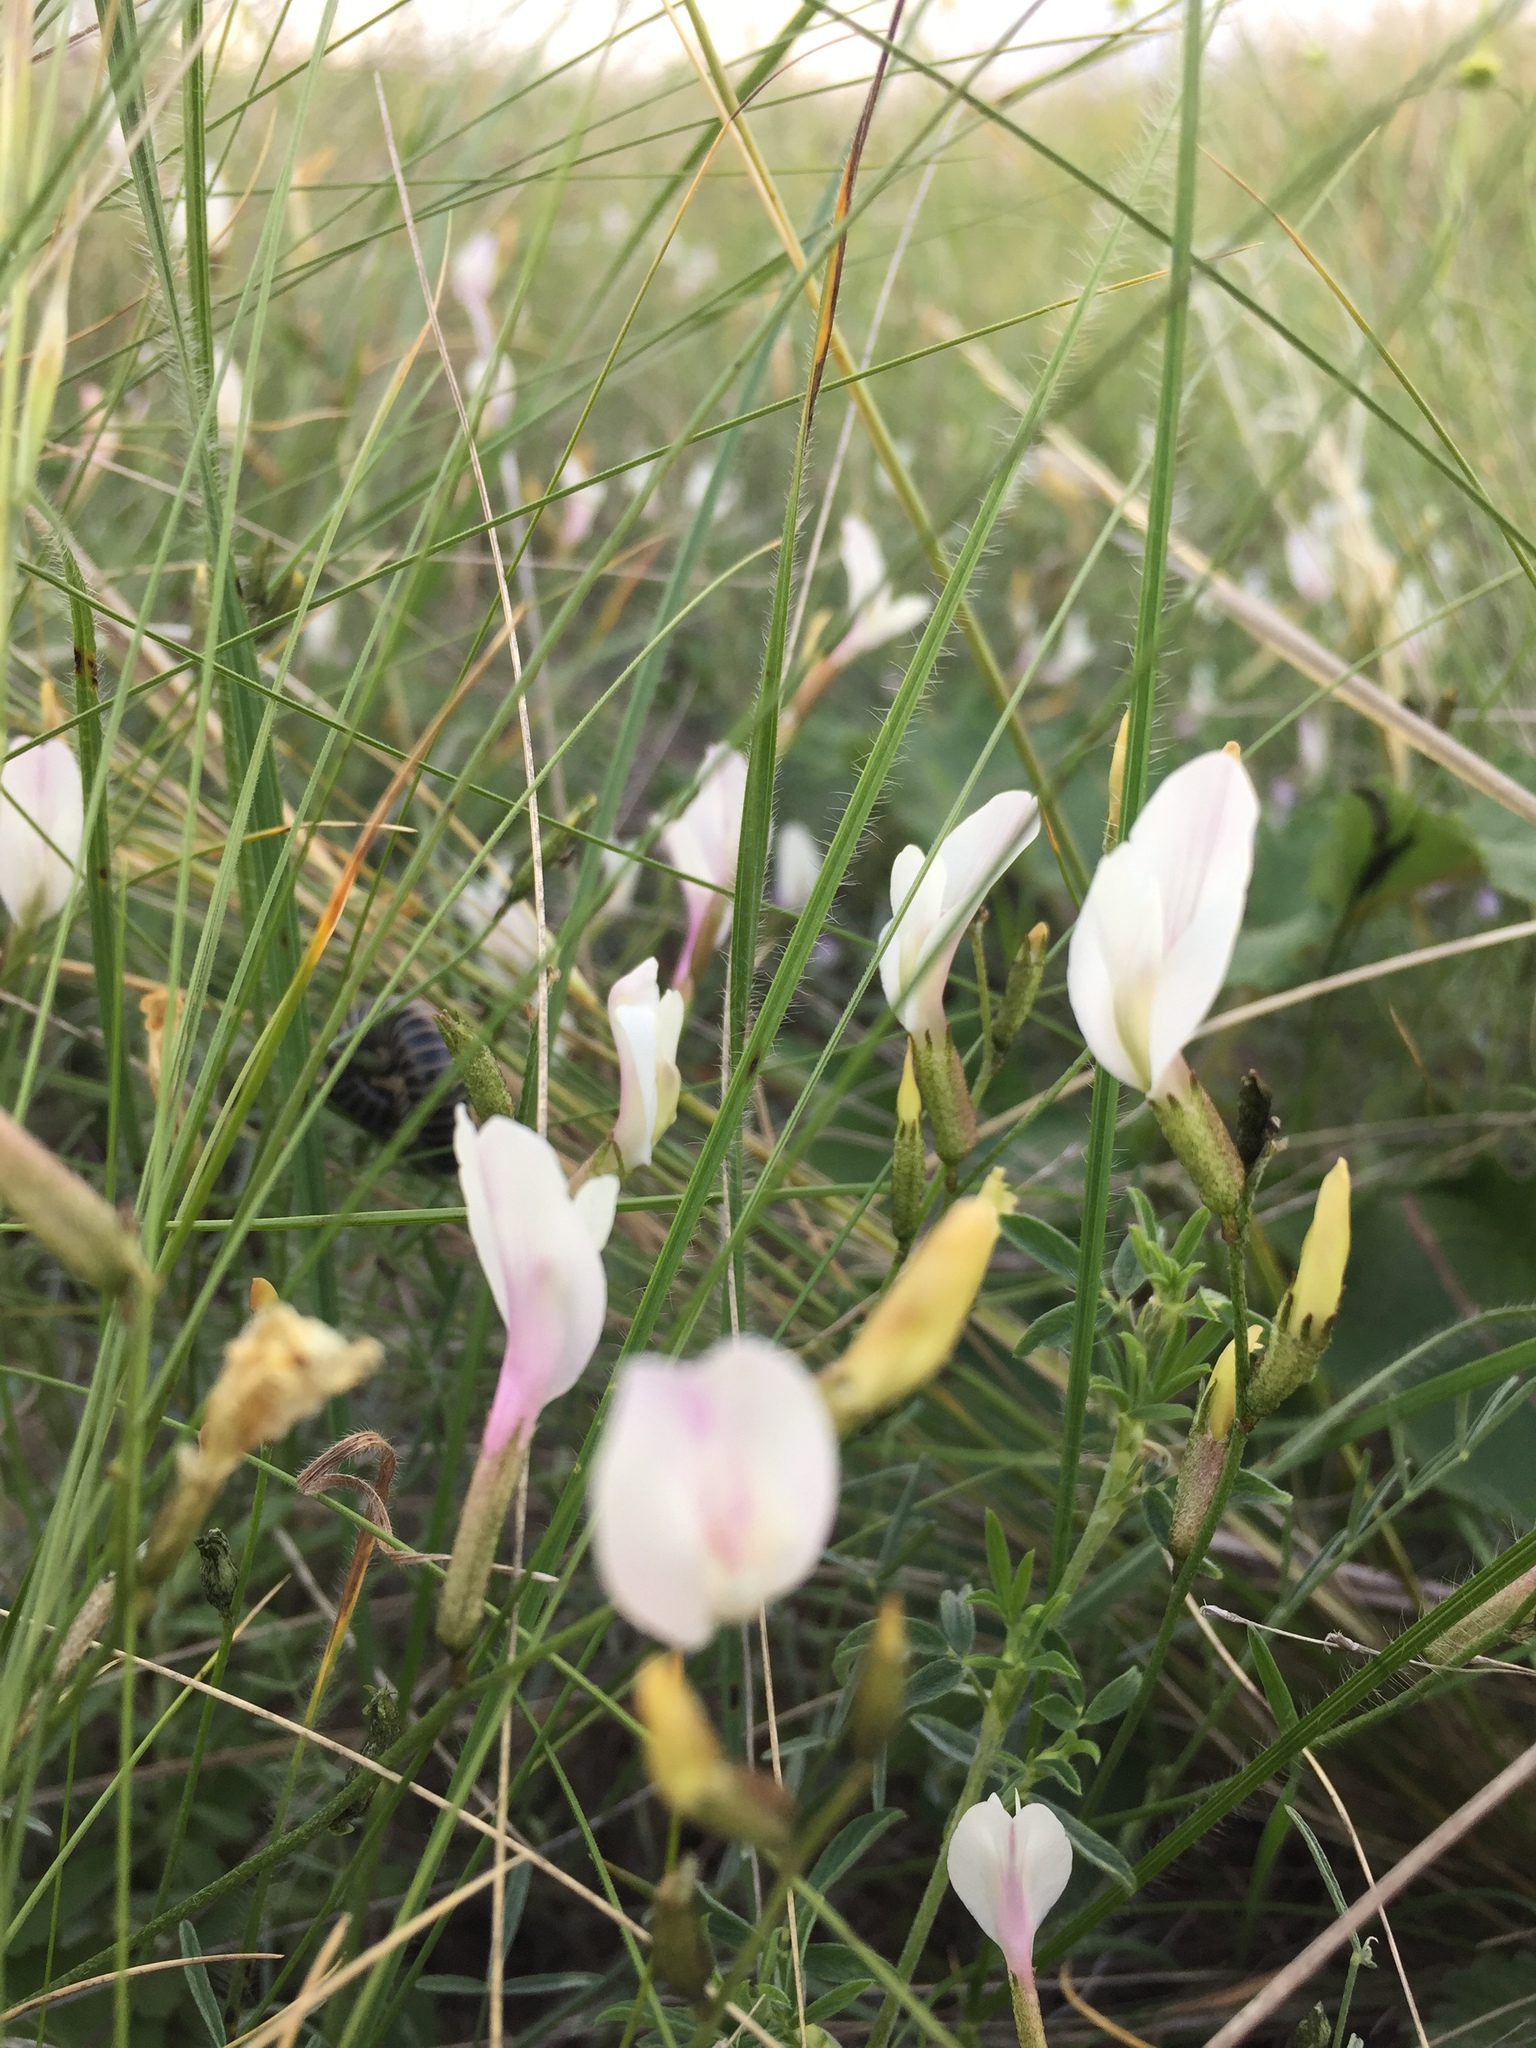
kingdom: Plantae
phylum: Tracheophyta
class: Magnoliopsida
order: Fabales
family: Fabaceae
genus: Astragalus
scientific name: Astragalus ucrainicus
